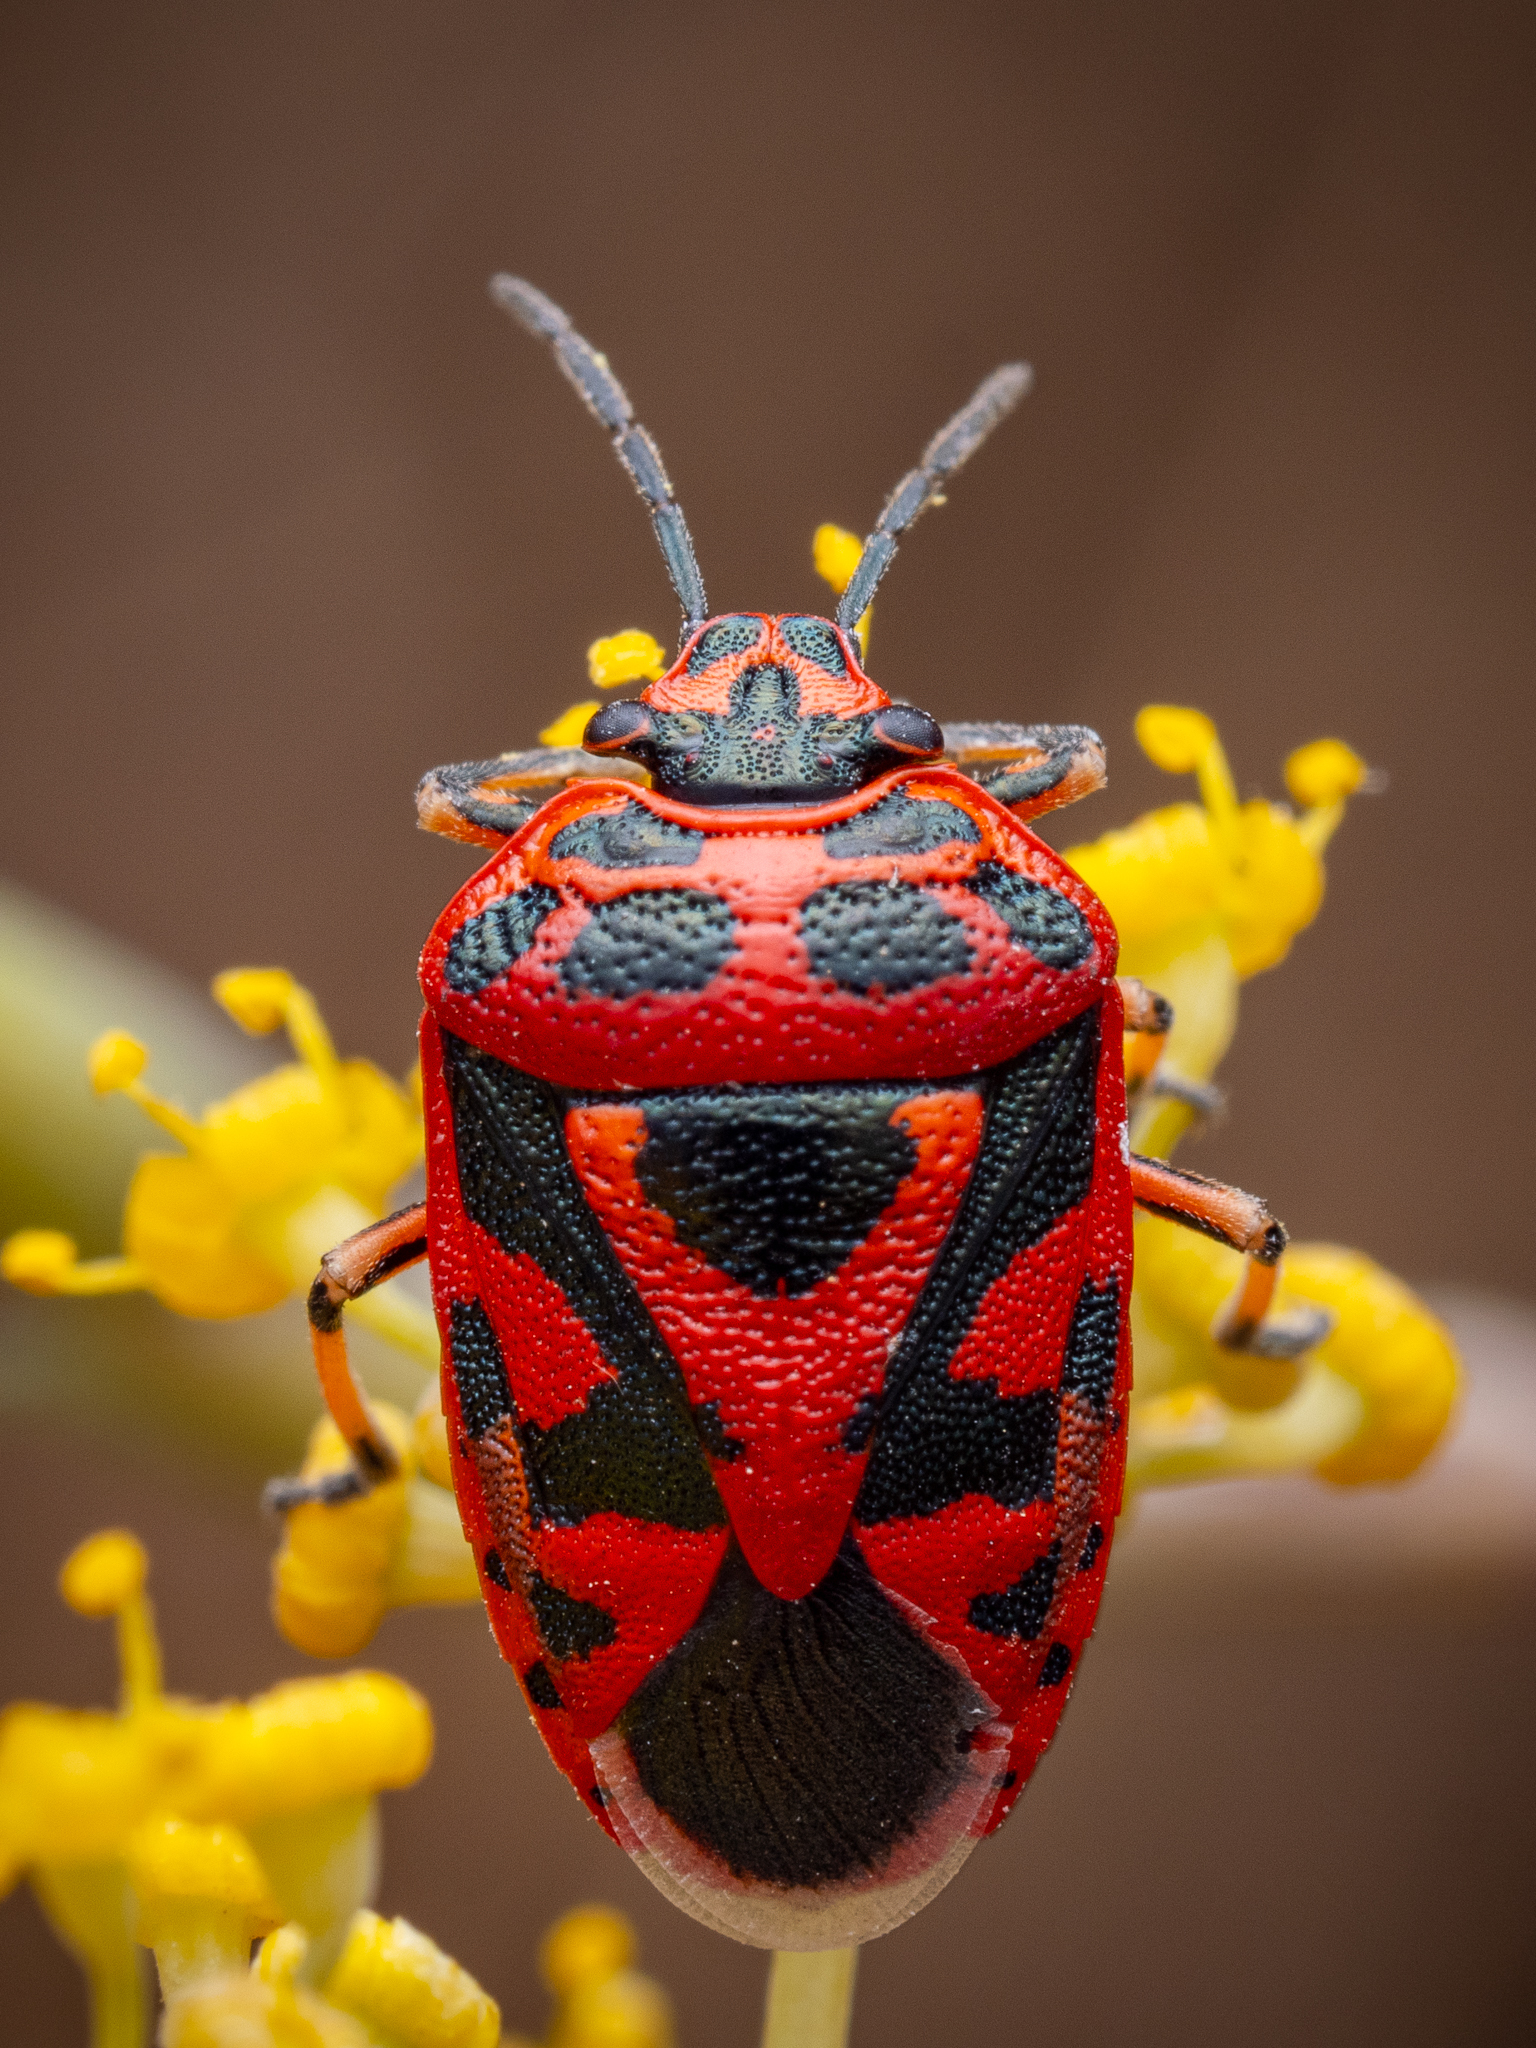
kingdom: Animalia
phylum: Arthropoda
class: Insecta
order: Hemiptera
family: Pentatomidae
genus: Eurydema
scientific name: Eurydema ornata
